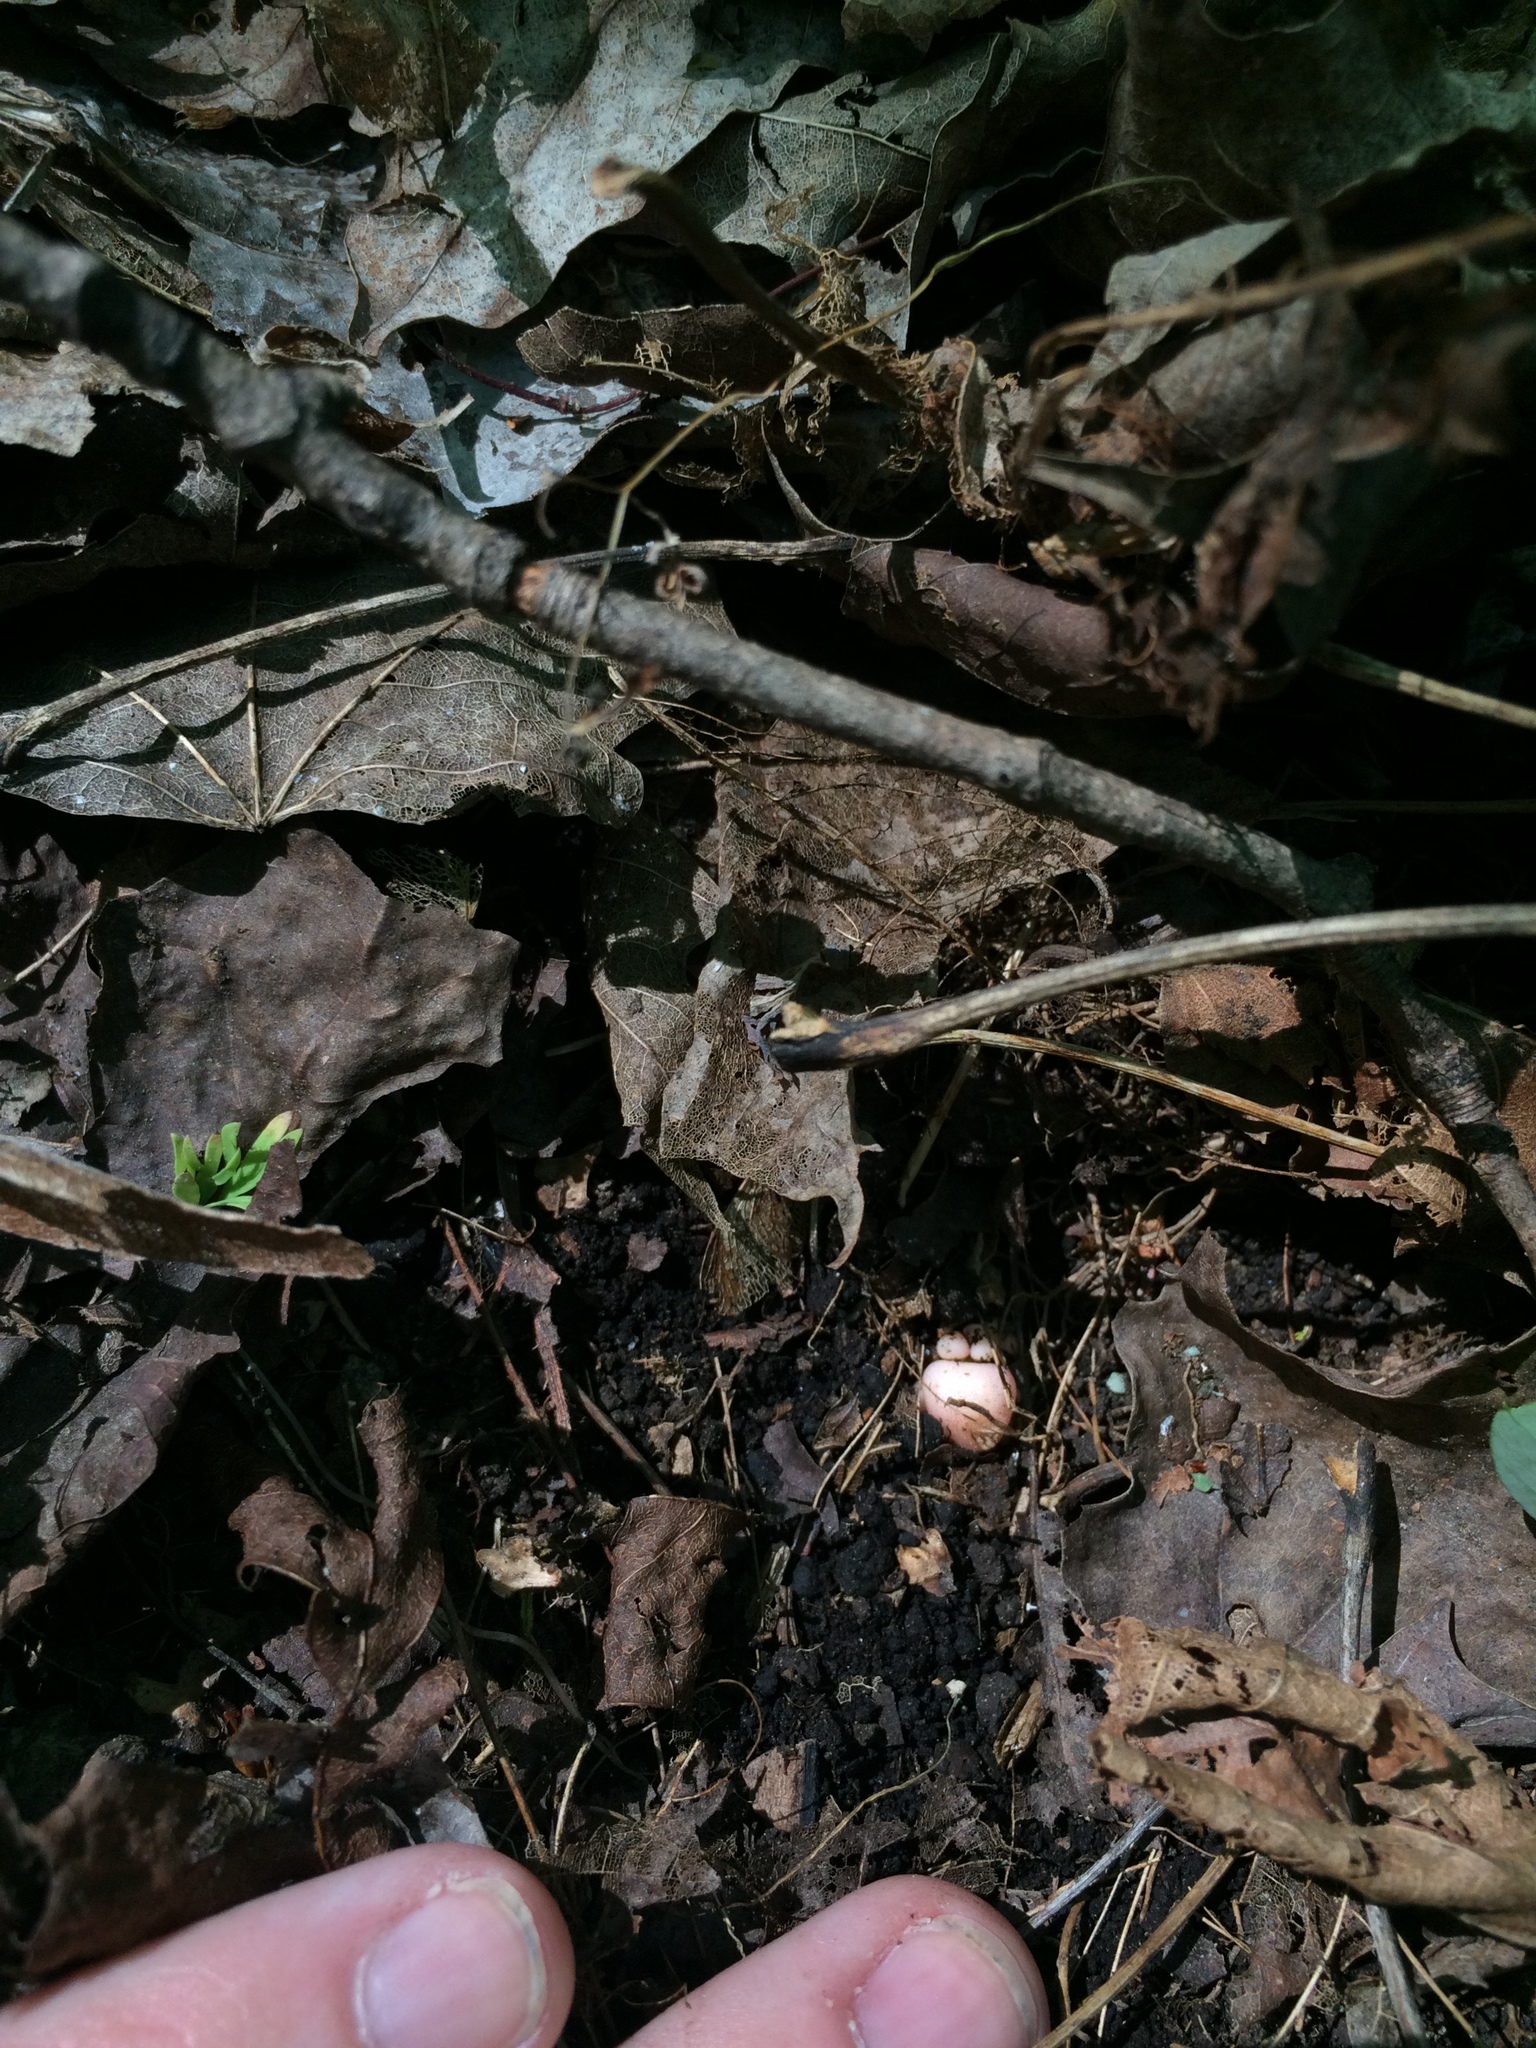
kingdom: Plantae
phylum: Tracheophyta
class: Magnoliopsida
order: Ranunculales
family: Papaveraceae
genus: Dicentra
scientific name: Dicentra cucullaria
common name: Dutchman's breeches
